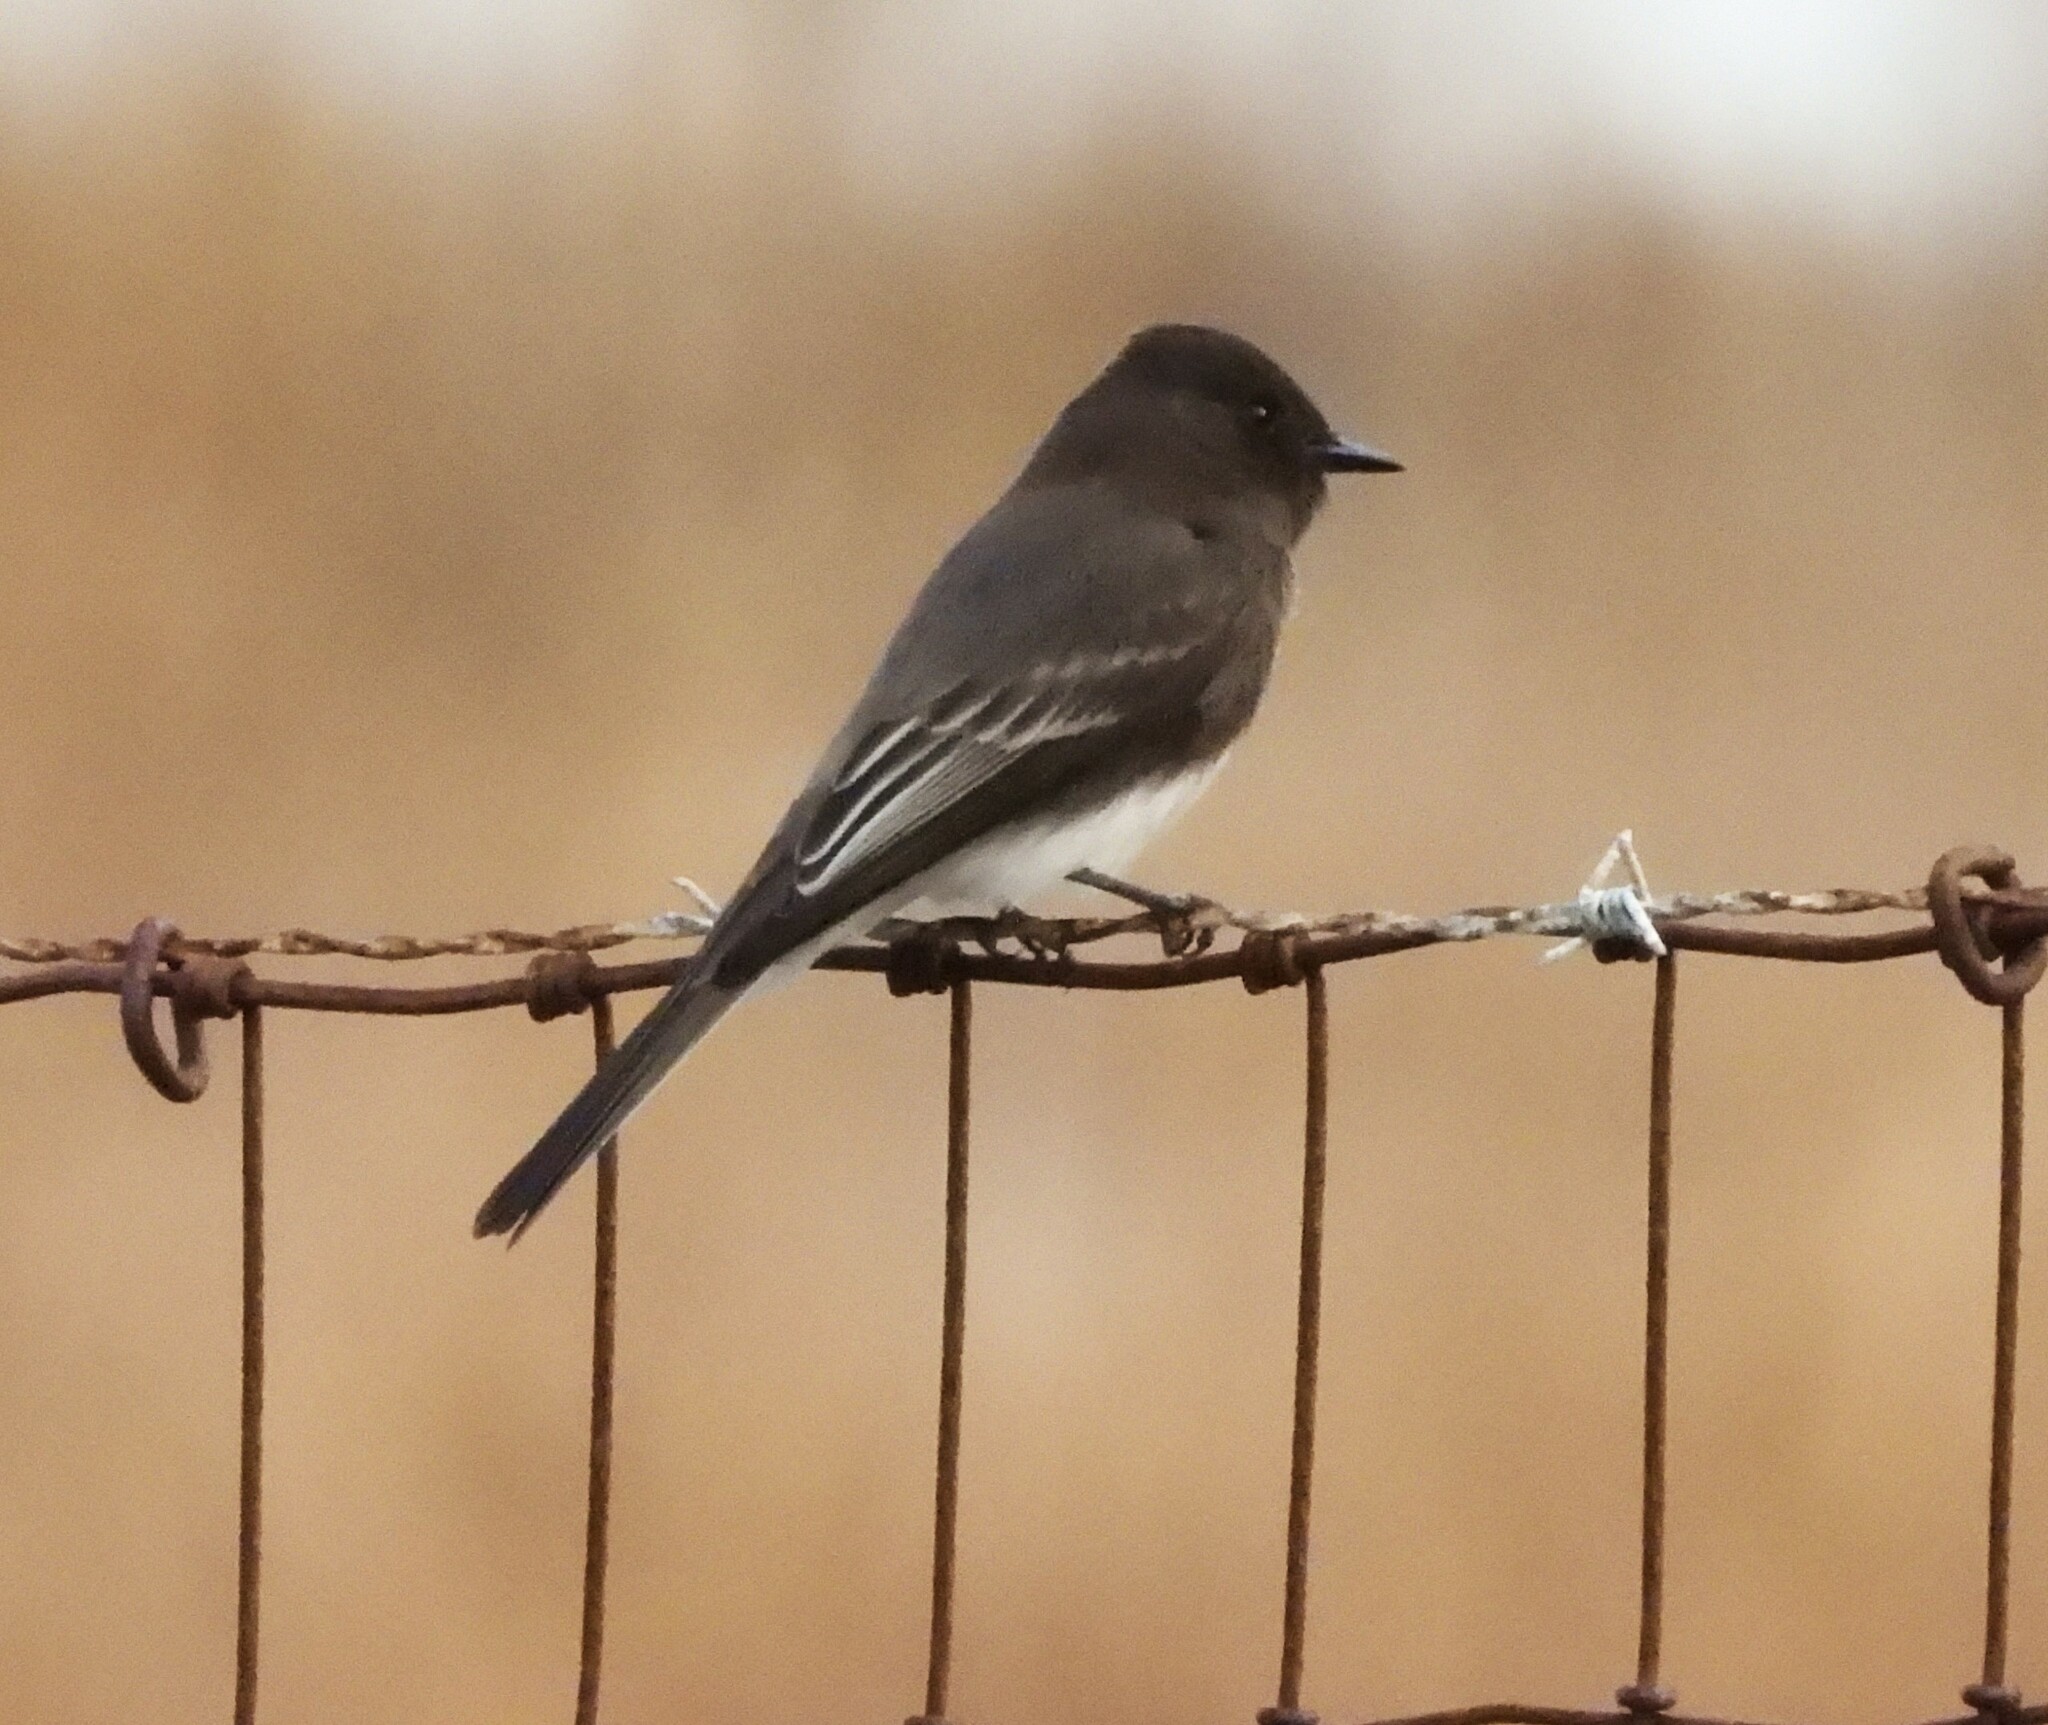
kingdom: Animalia
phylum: Chordata
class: Aves
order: Passeriformes
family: Tyrannidae
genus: Sayornis
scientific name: Sayornis nigricans
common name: Black phoebe
